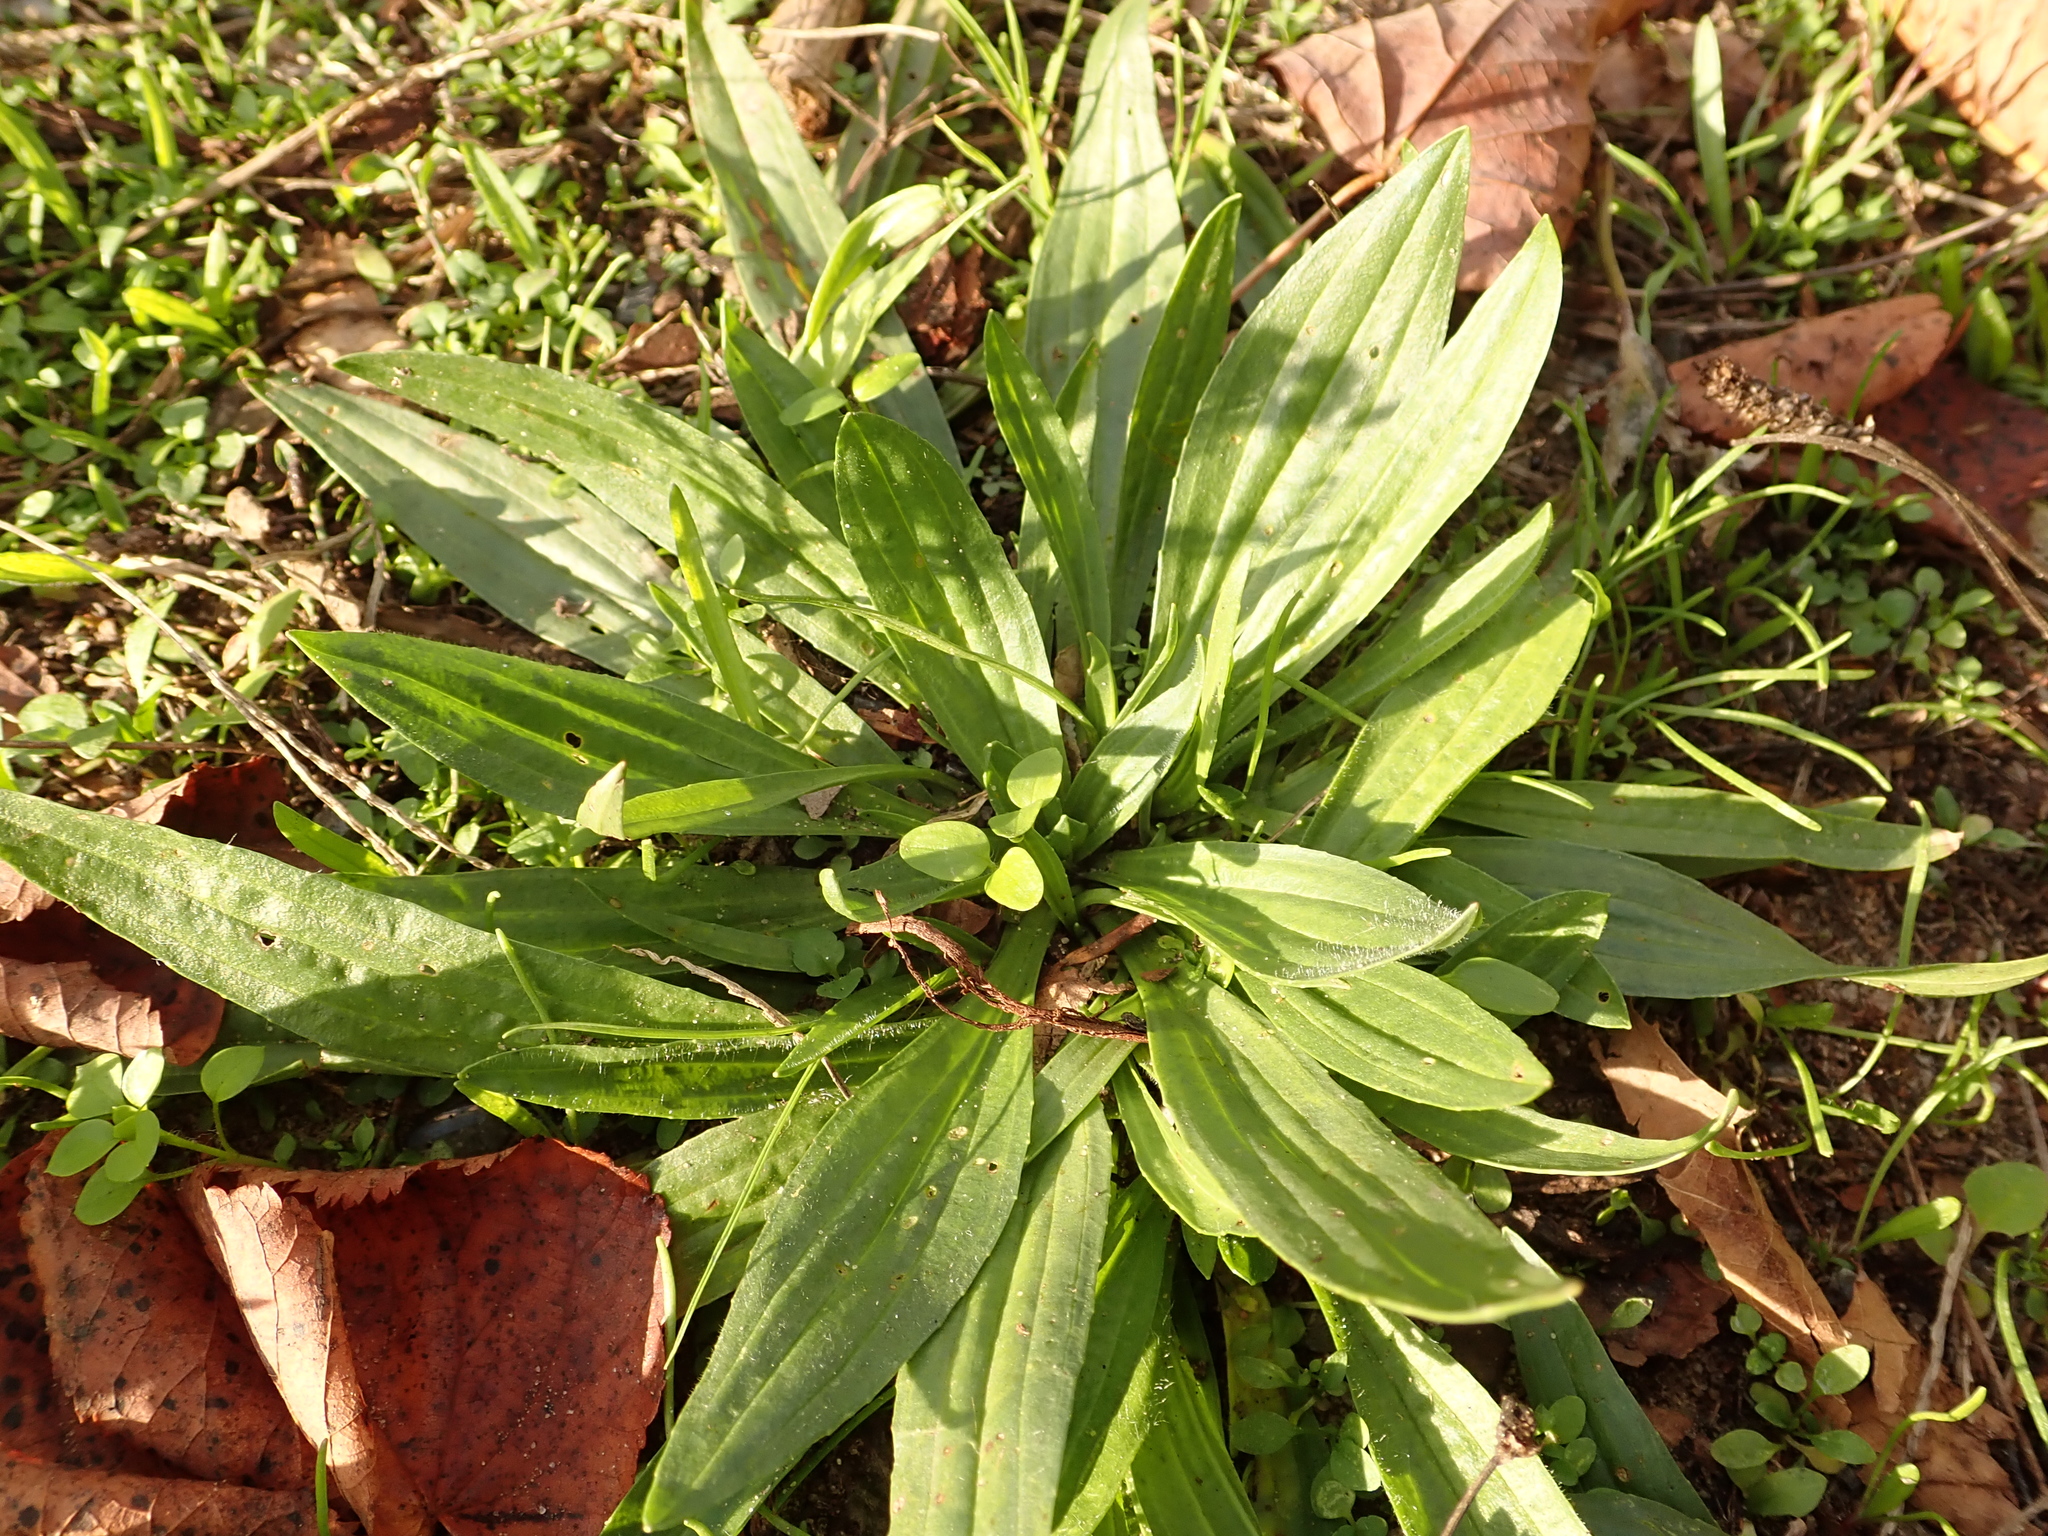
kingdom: Plantae
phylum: Tracheophyta
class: Magnoliopsida
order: Lamiales
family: Plantaginaceae
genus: Plantago
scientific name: Plantago lanceolata
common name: Ribwort plantain
